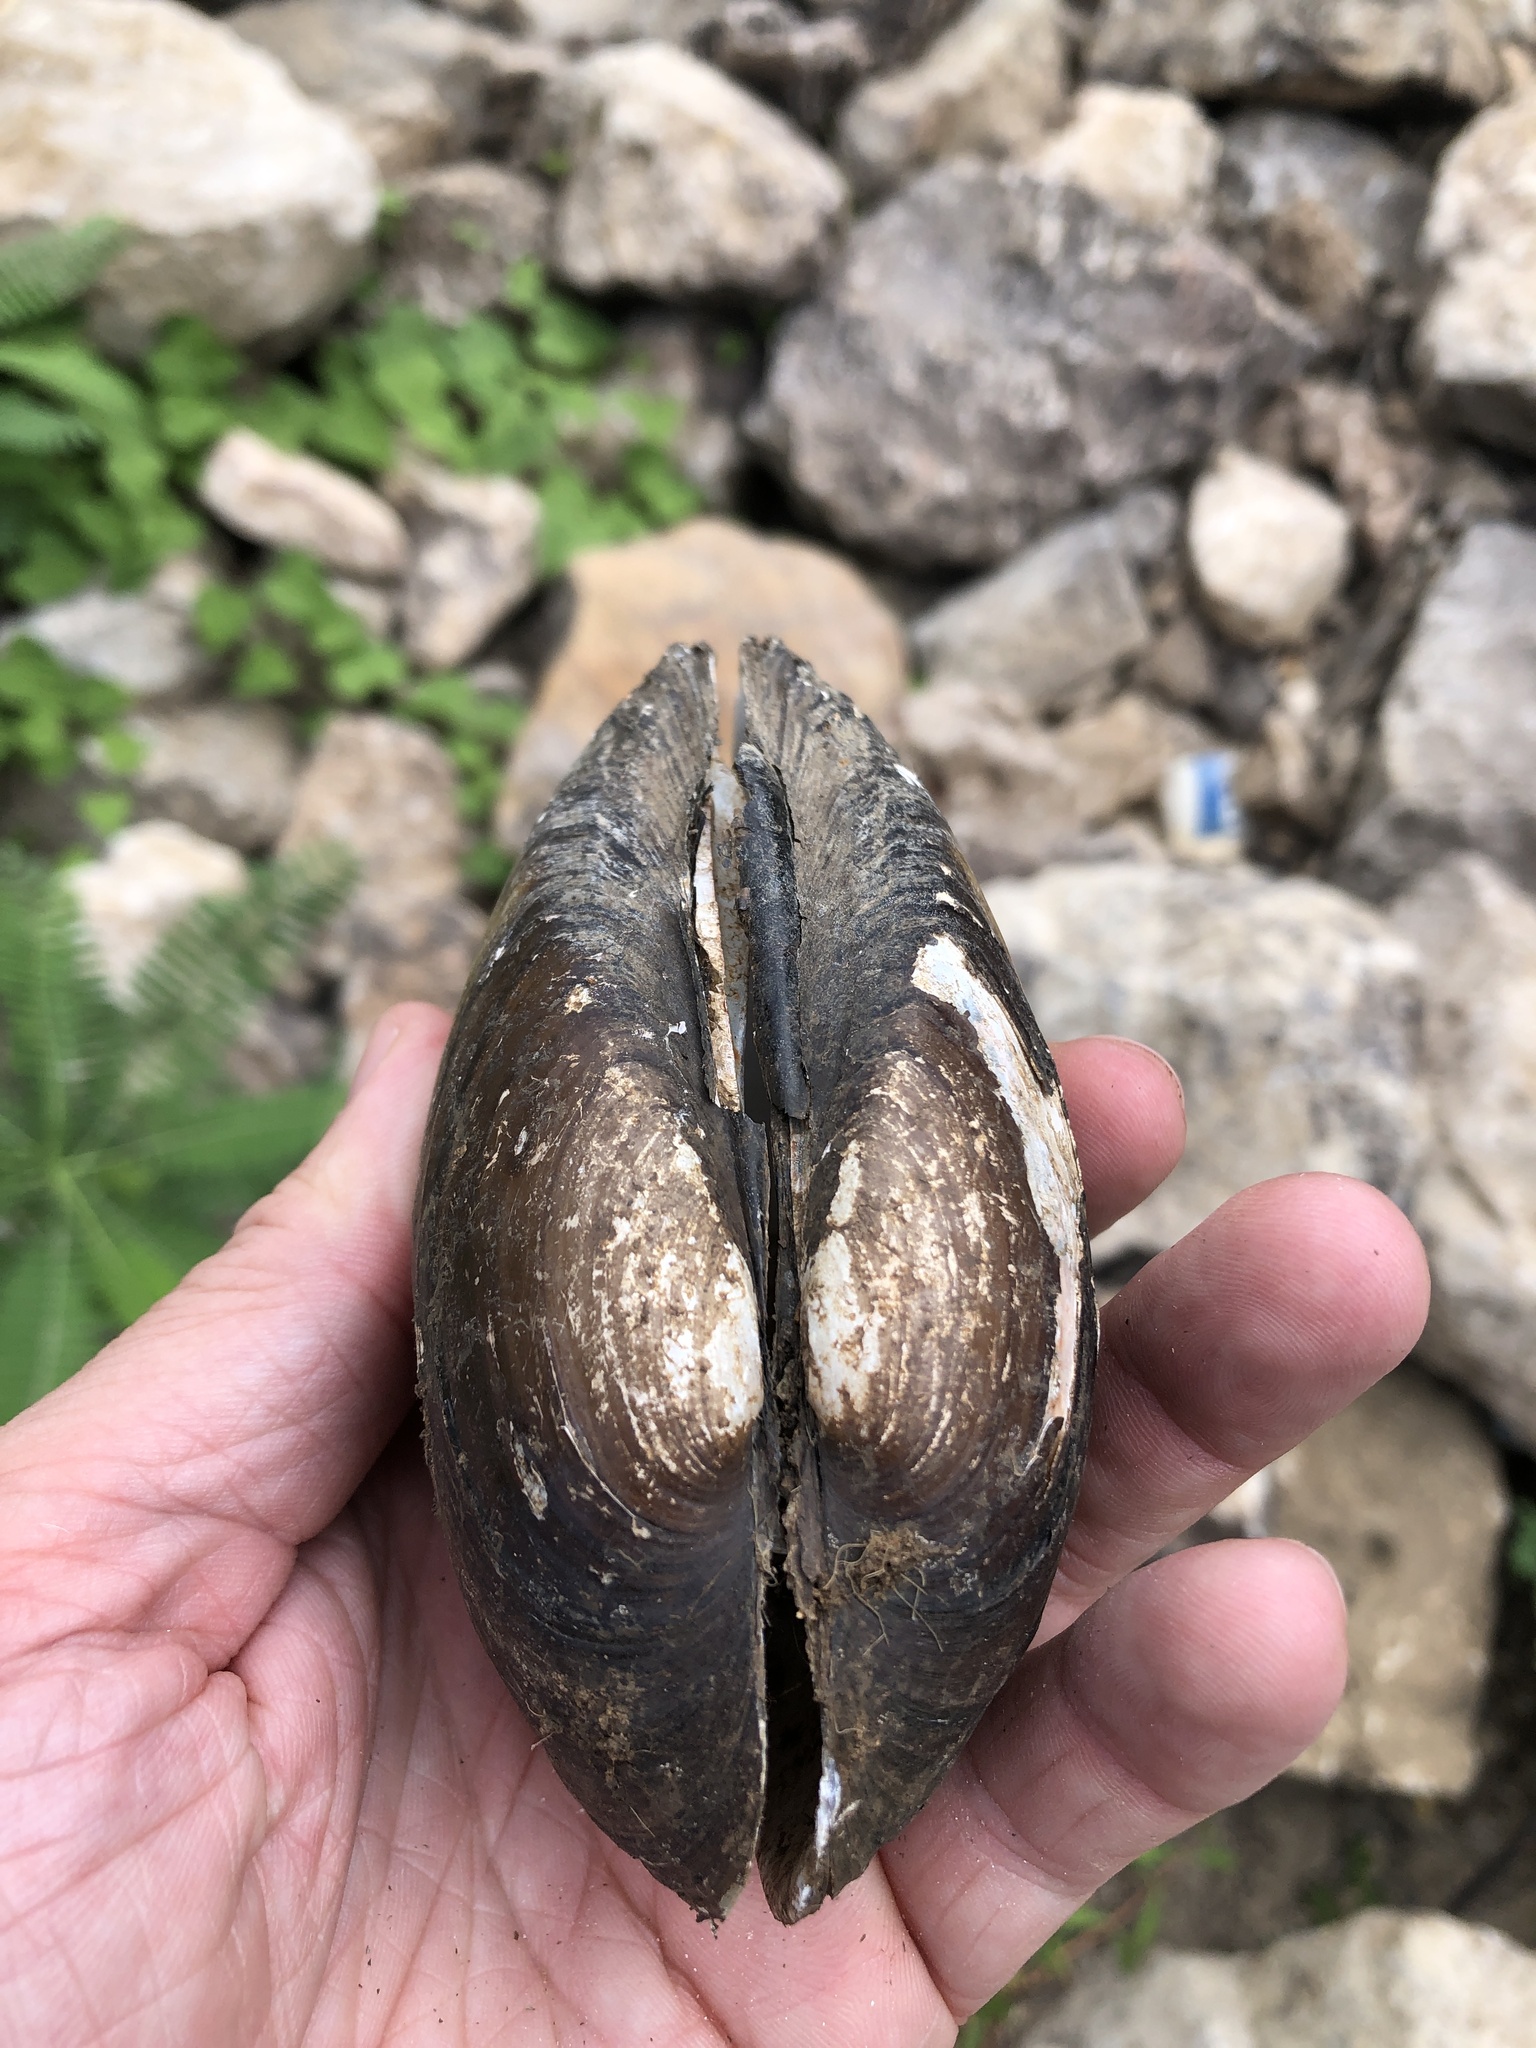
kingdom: Animalia
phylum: Mollusca
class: Bivalvia
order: Unionida
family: Unionidae
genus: Lampsilis
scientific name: Lampsilis teres
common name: Yellow sandshell
